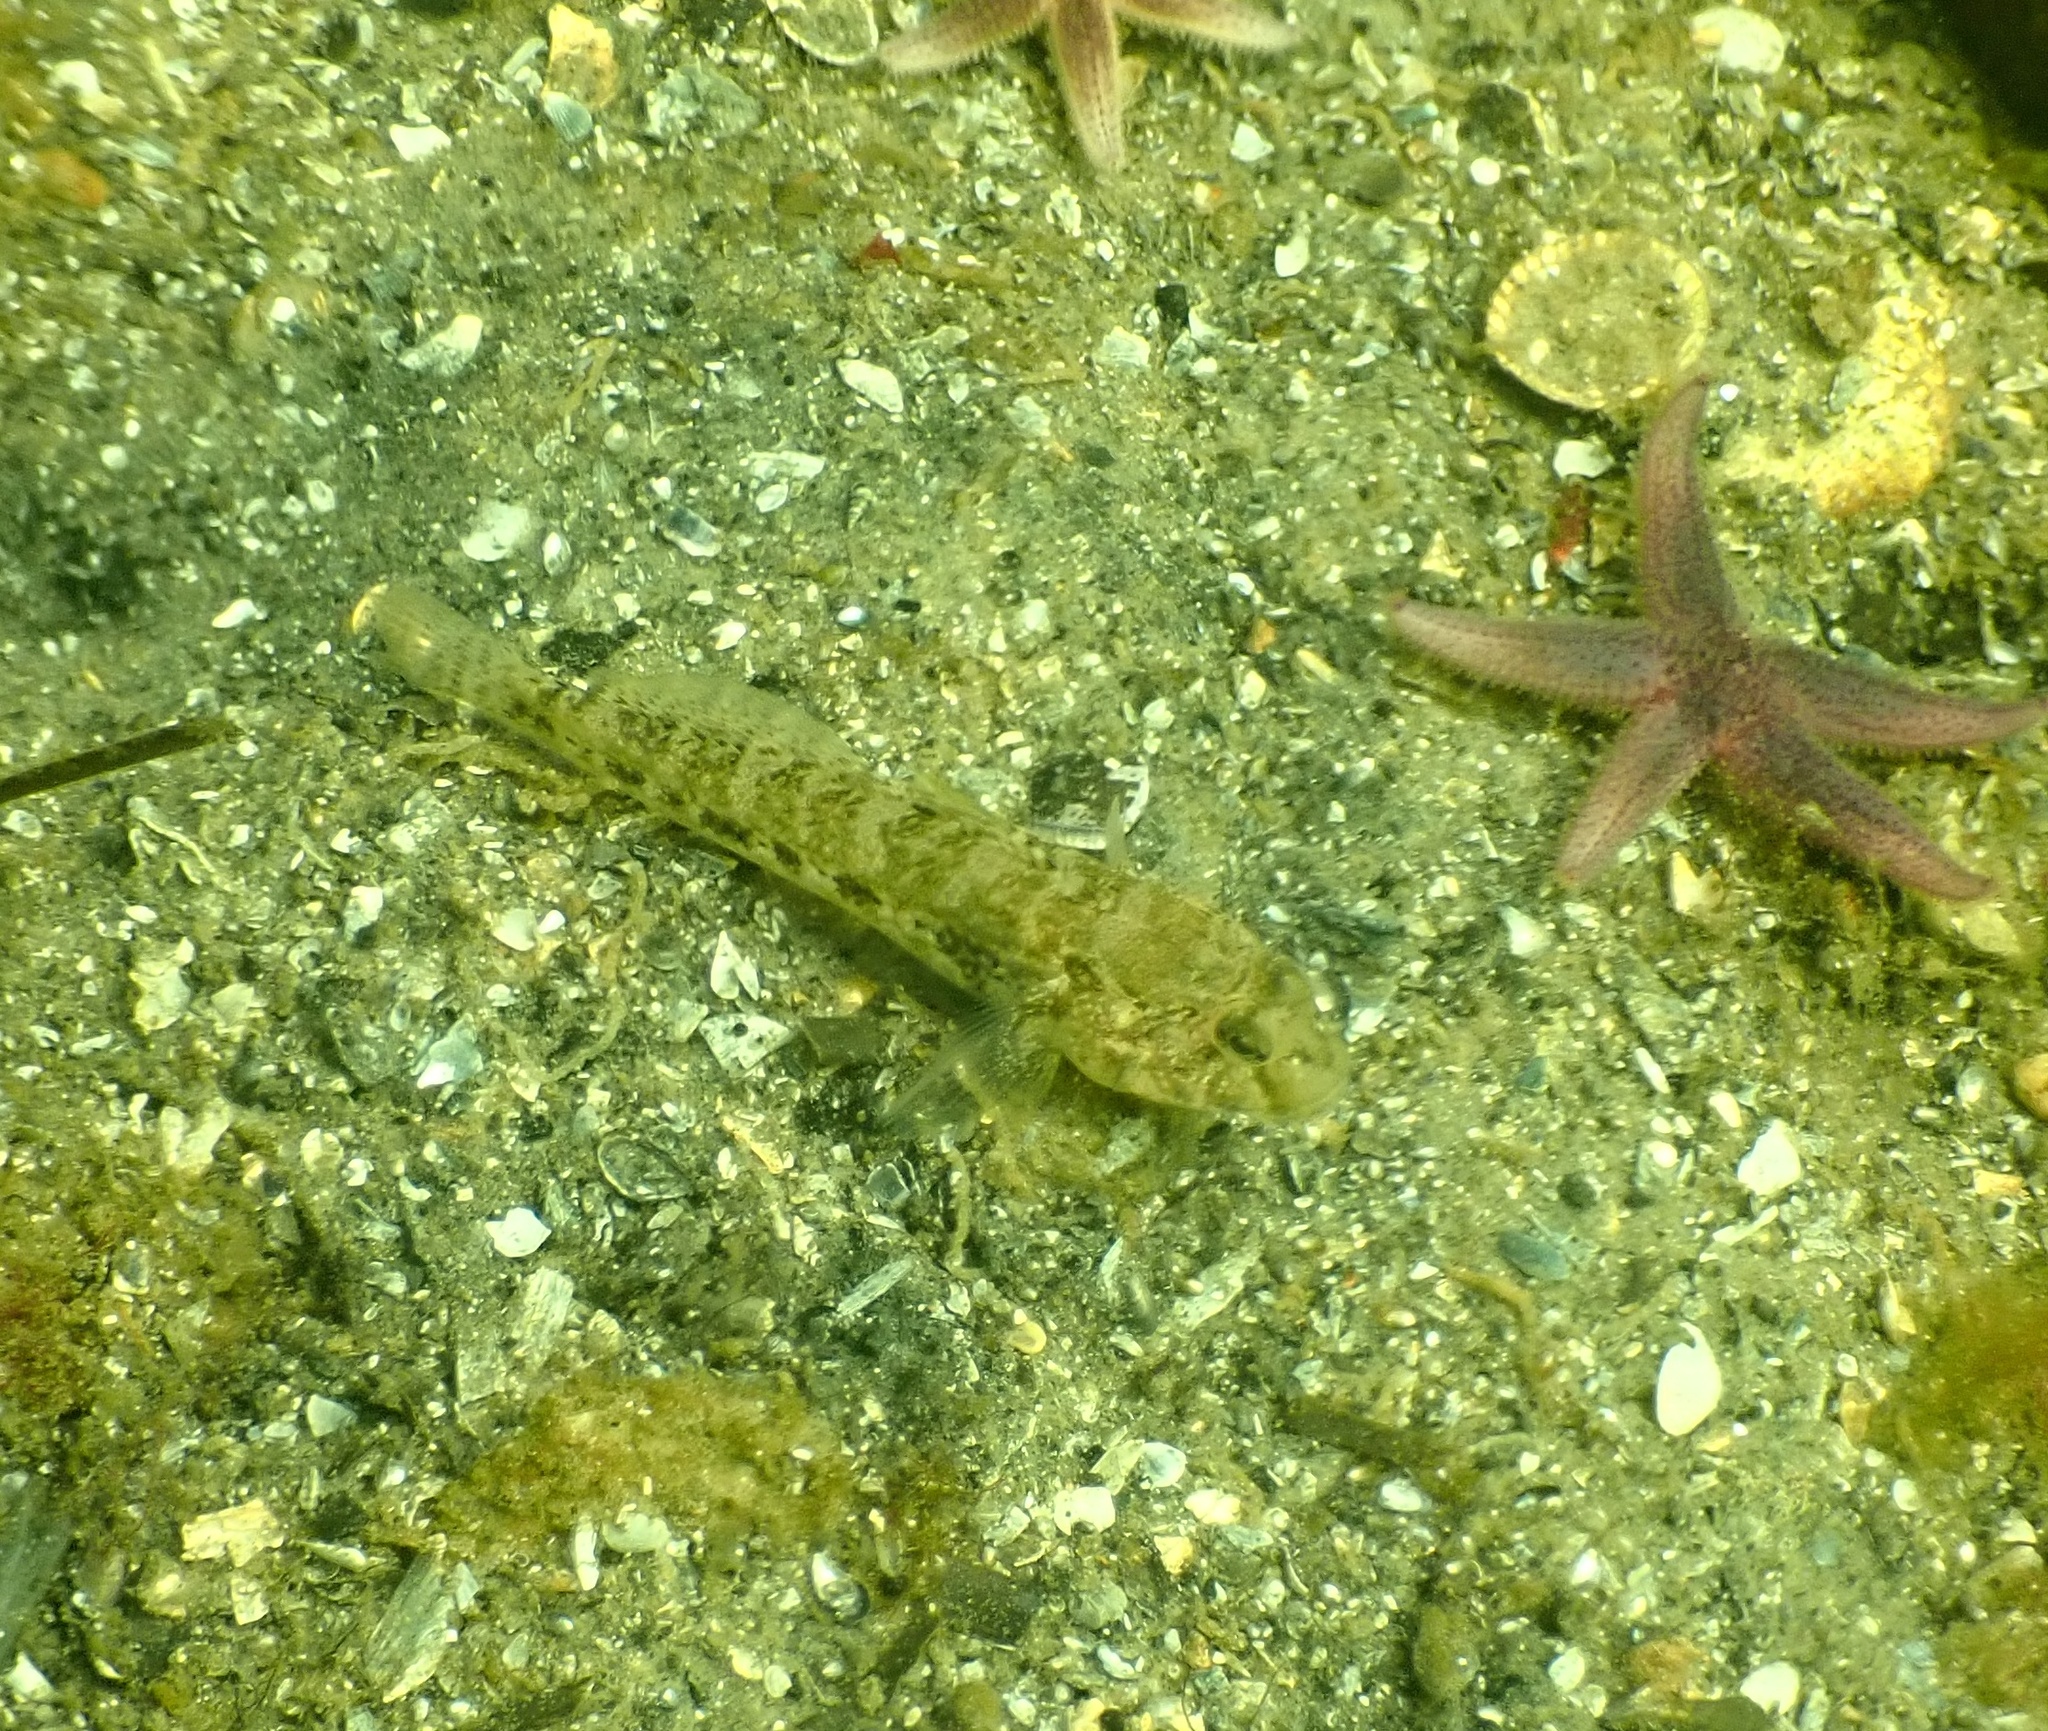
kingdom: Animalia
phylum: Chordata
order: Perciformes
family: Gobiidae
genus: Gobius
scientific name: Gobius niger
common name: Black goby
